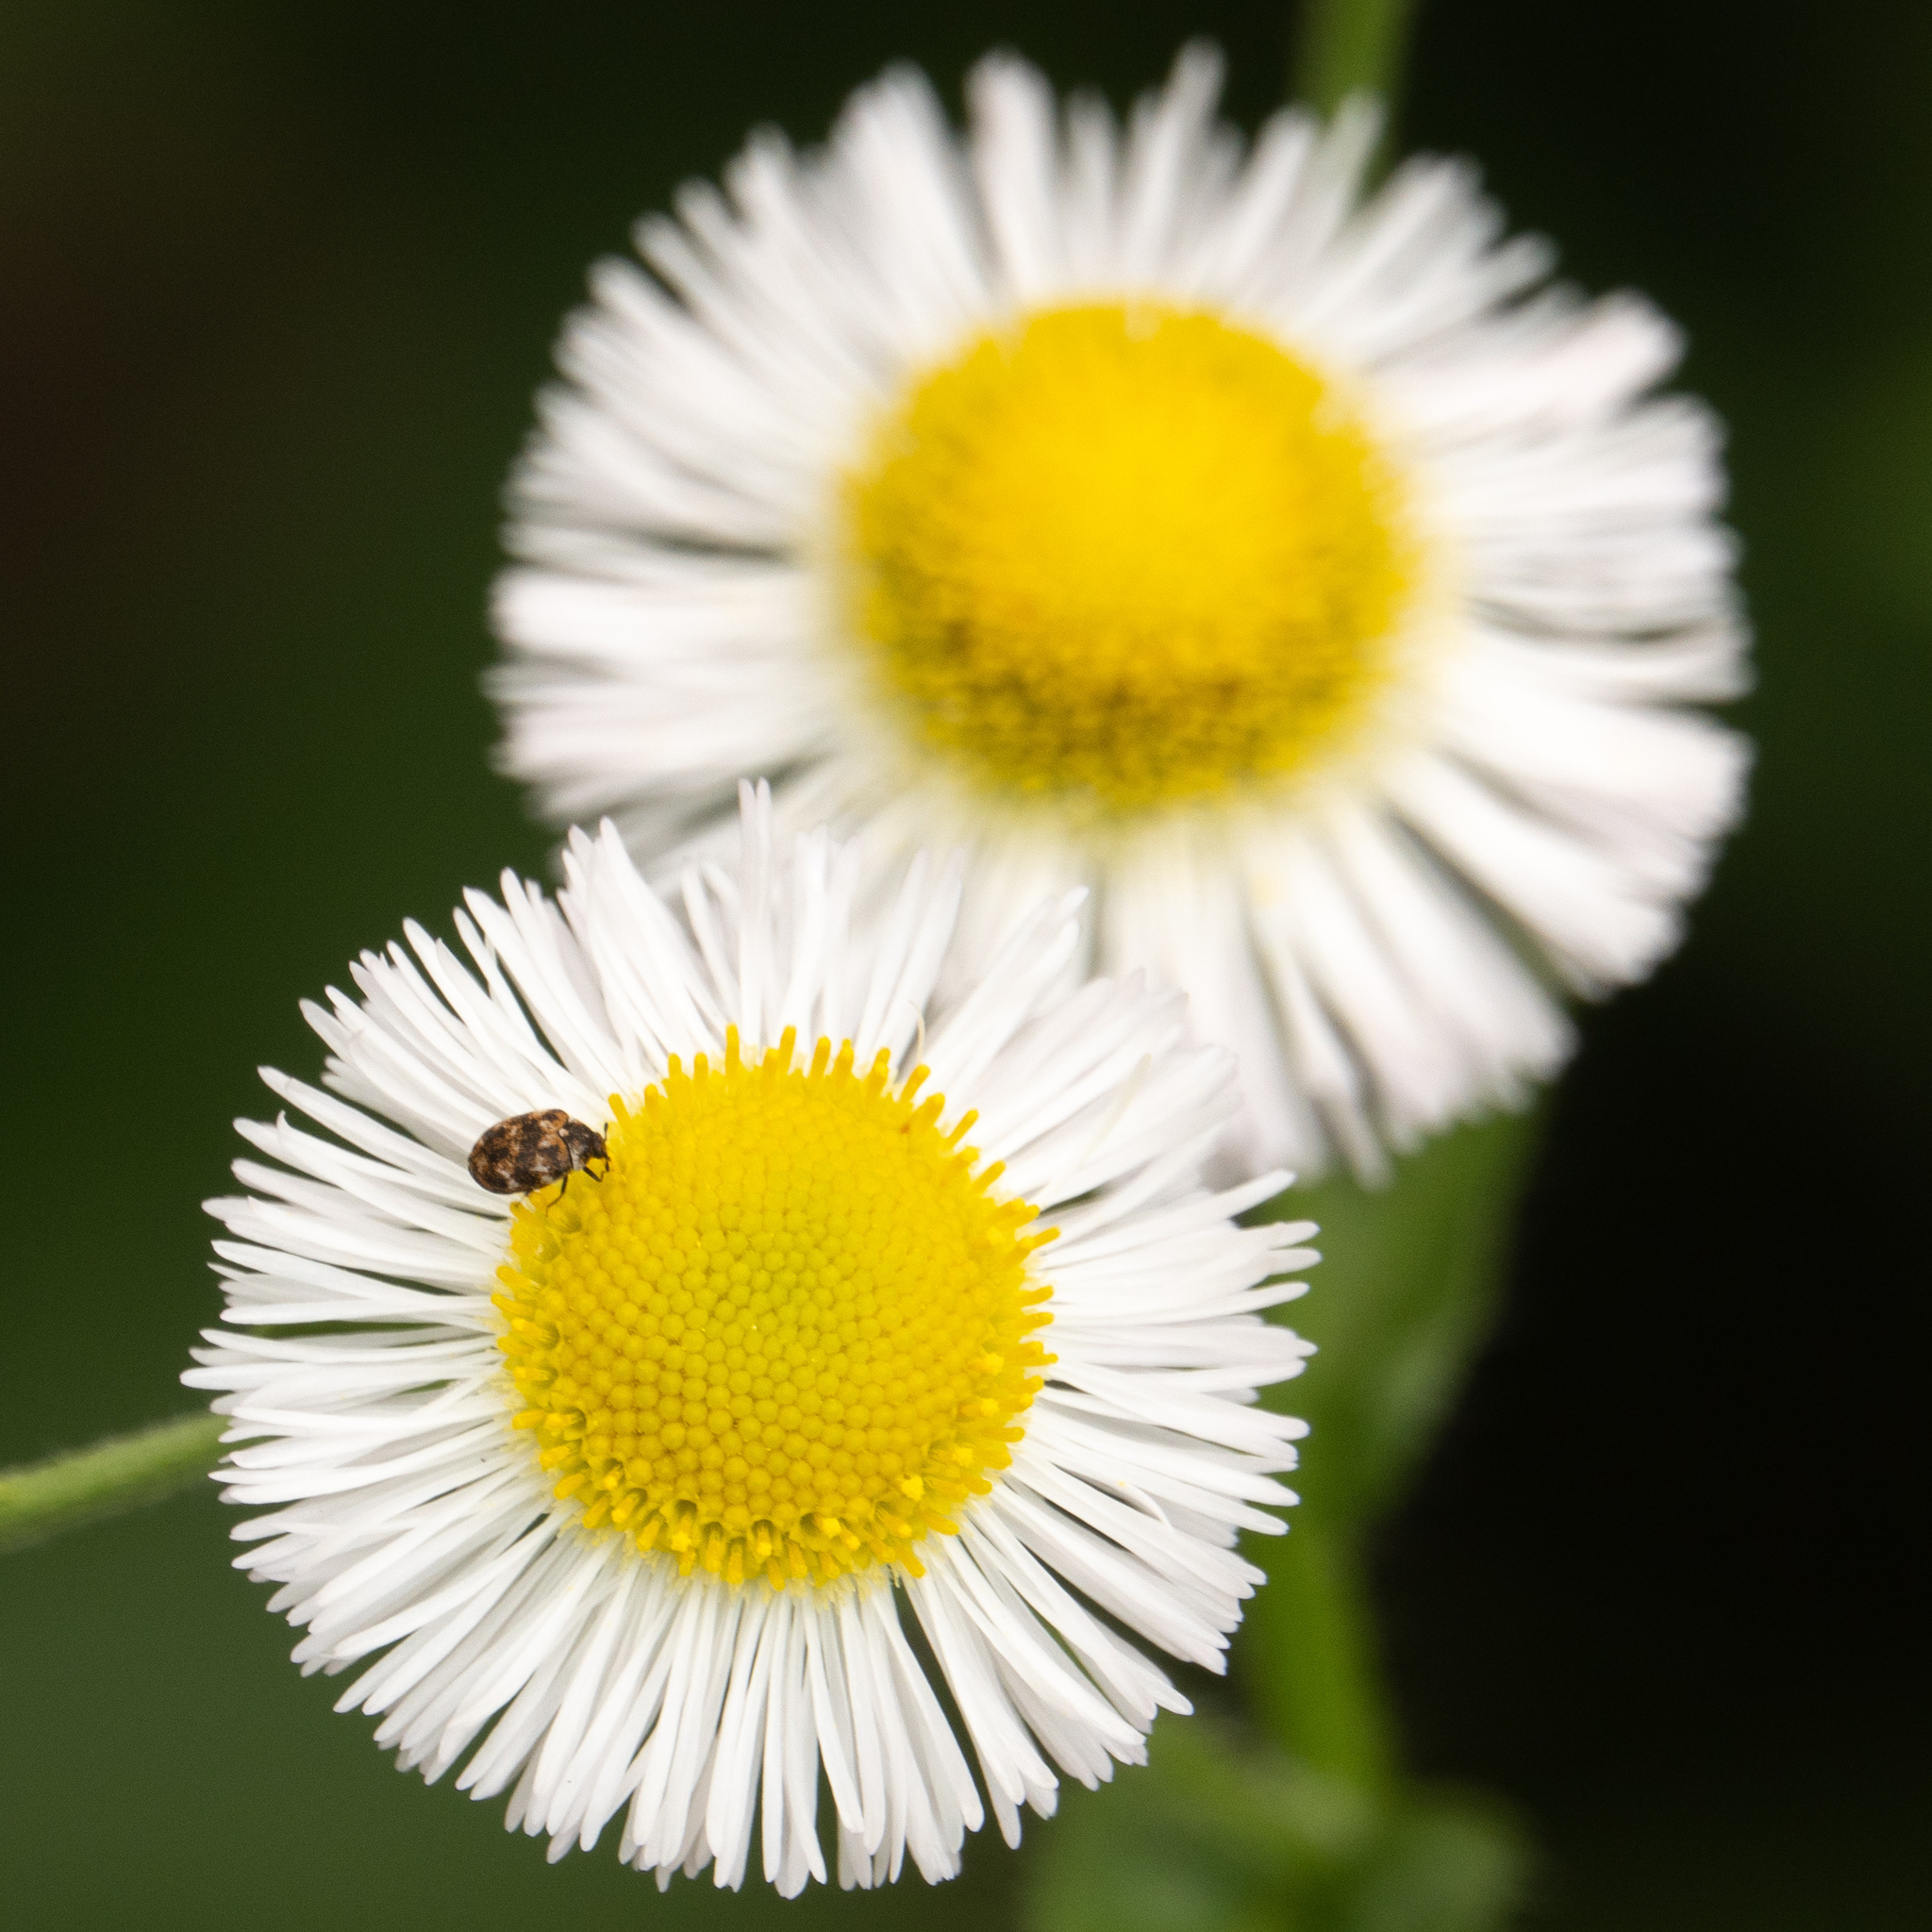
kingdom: Animalia
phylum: Arthropoda
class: Insecta
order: Coleoptera
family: Dermestidae
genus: Anthrenus
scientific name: Anthrenus verbasci
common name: Varied carpet beetle
